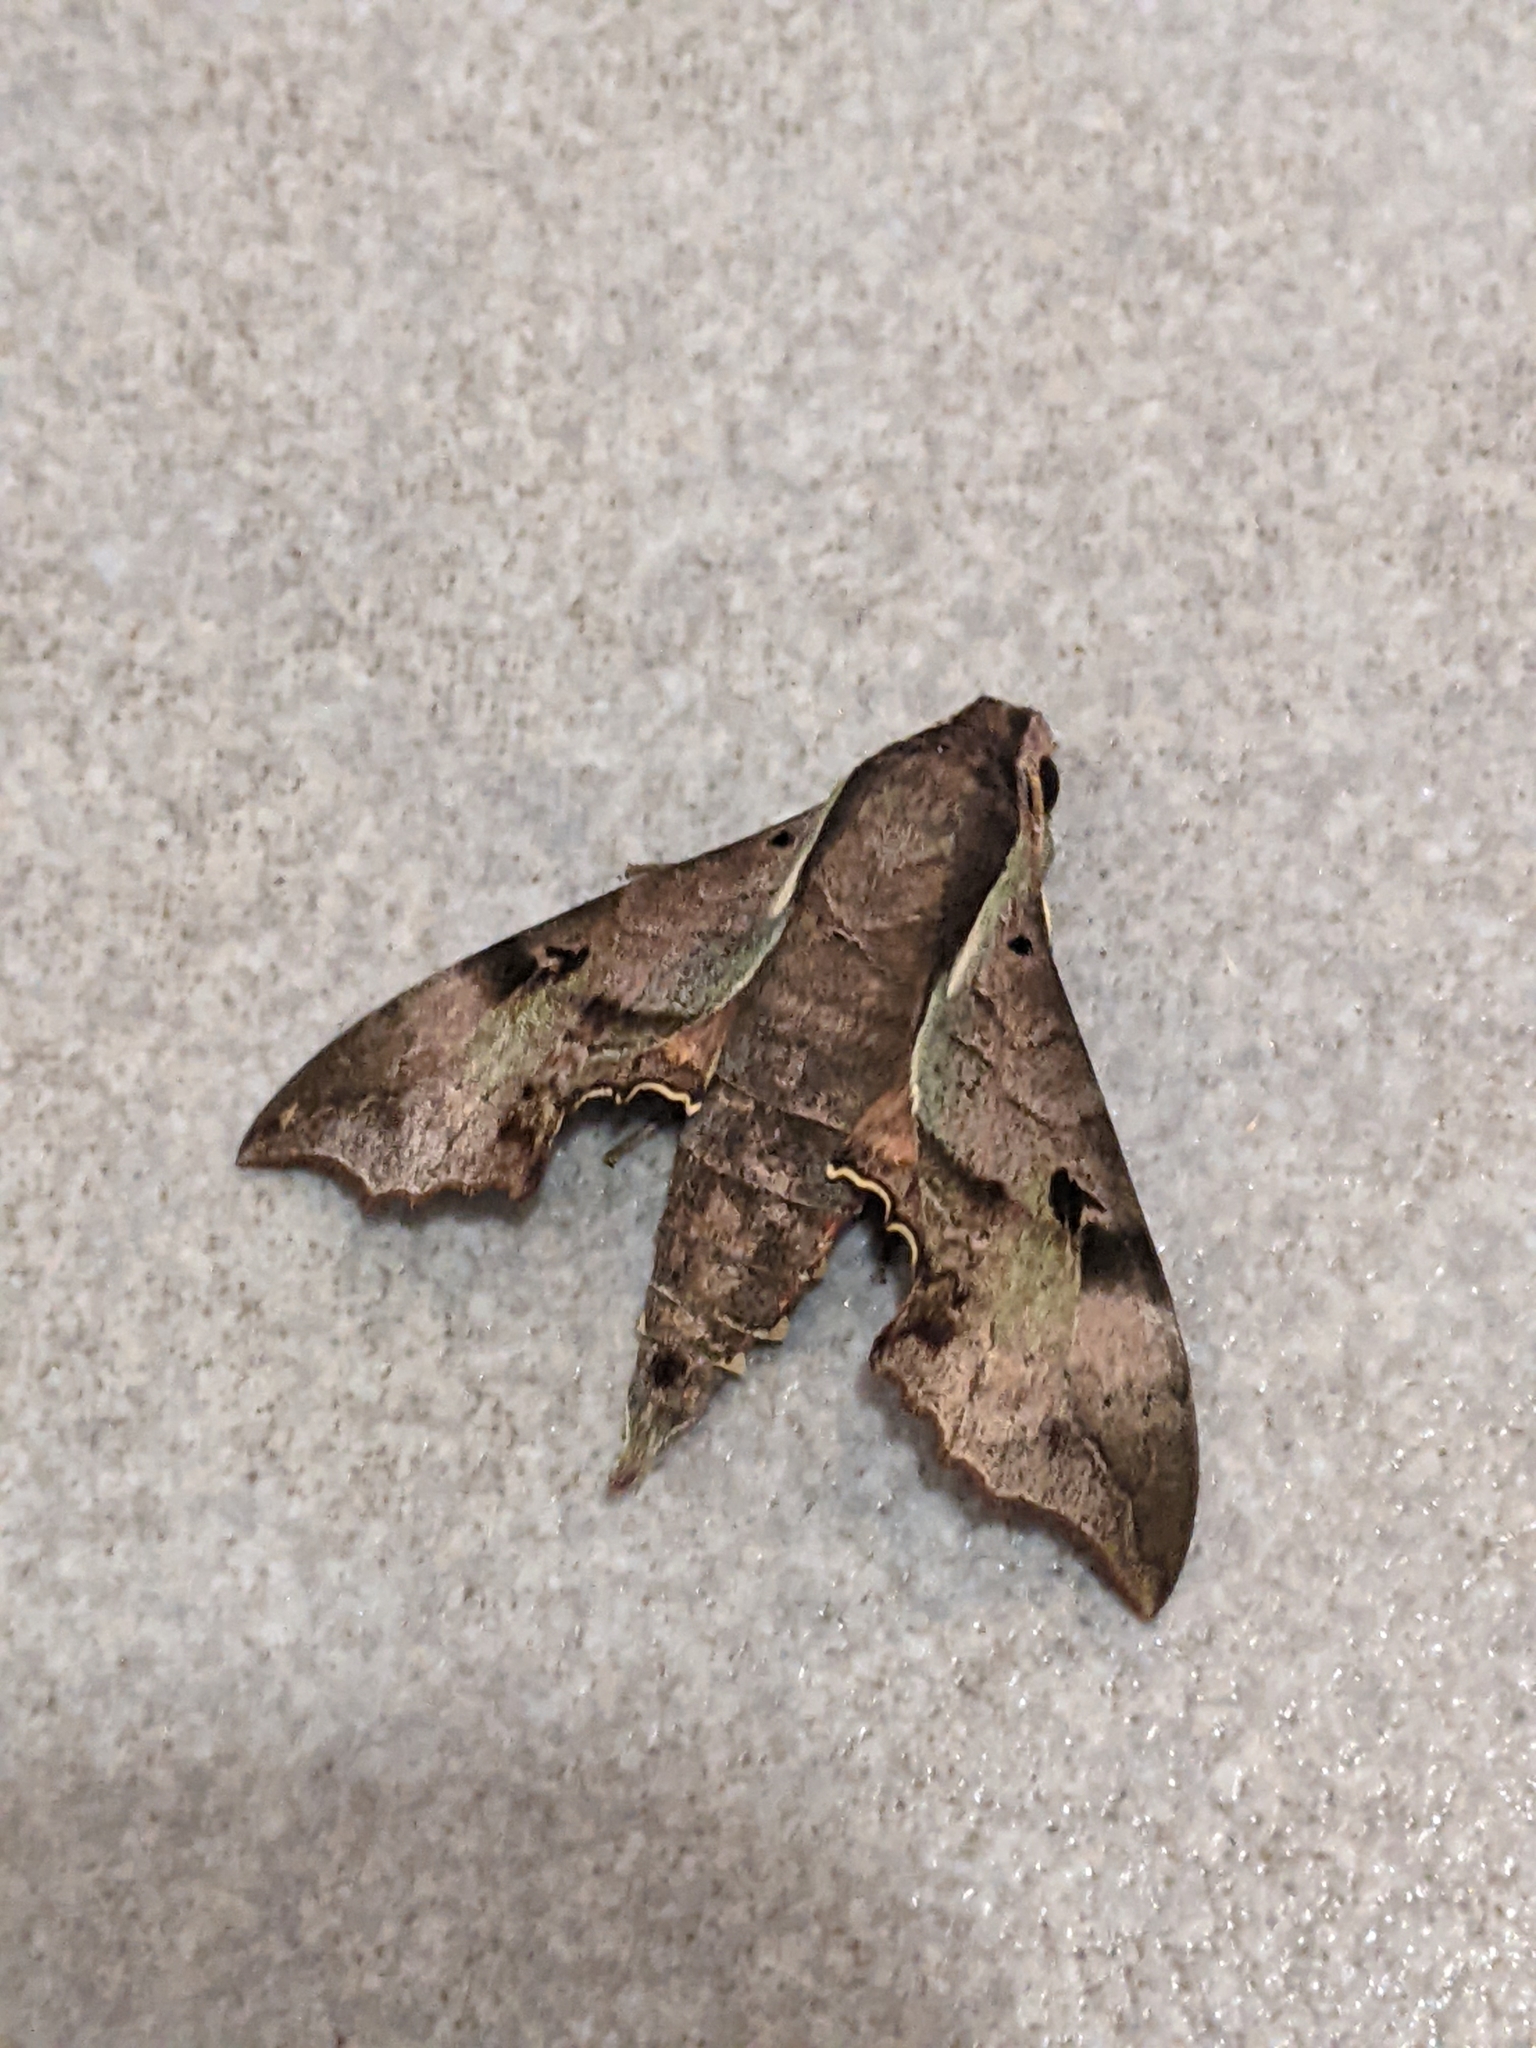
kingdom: Animalia
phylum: Arthropoda
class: Insecta
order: Lepidoptera
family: Sphingidae
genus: Enpinanga
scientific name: Enpinanga borneensis
